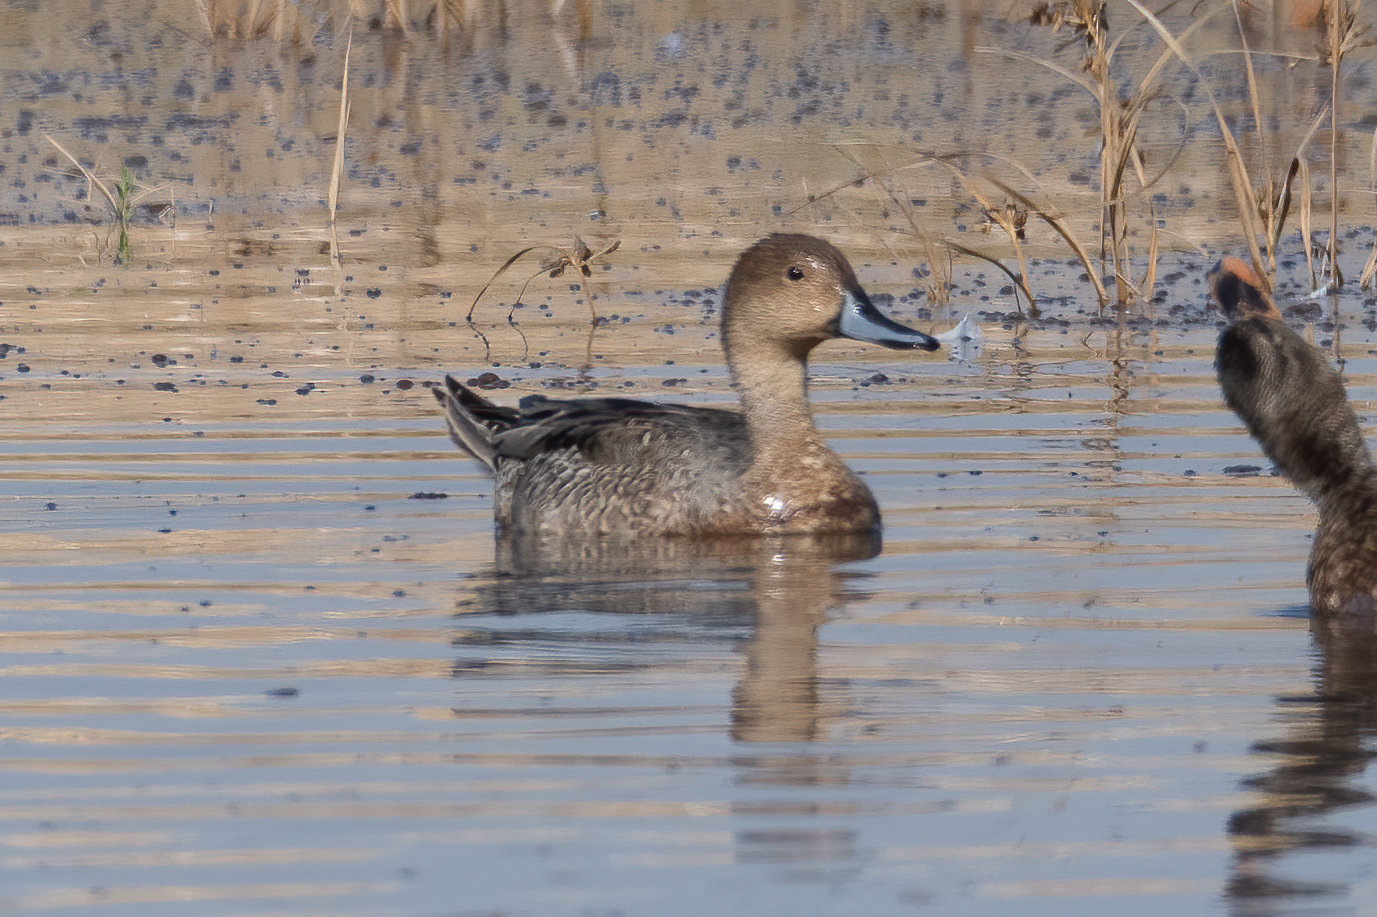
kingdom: Animalia
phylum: Chordata
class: Aves
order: Anseriformes
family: Anatidae
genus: Anas
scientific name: Anas acuta
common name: Northern pintail
